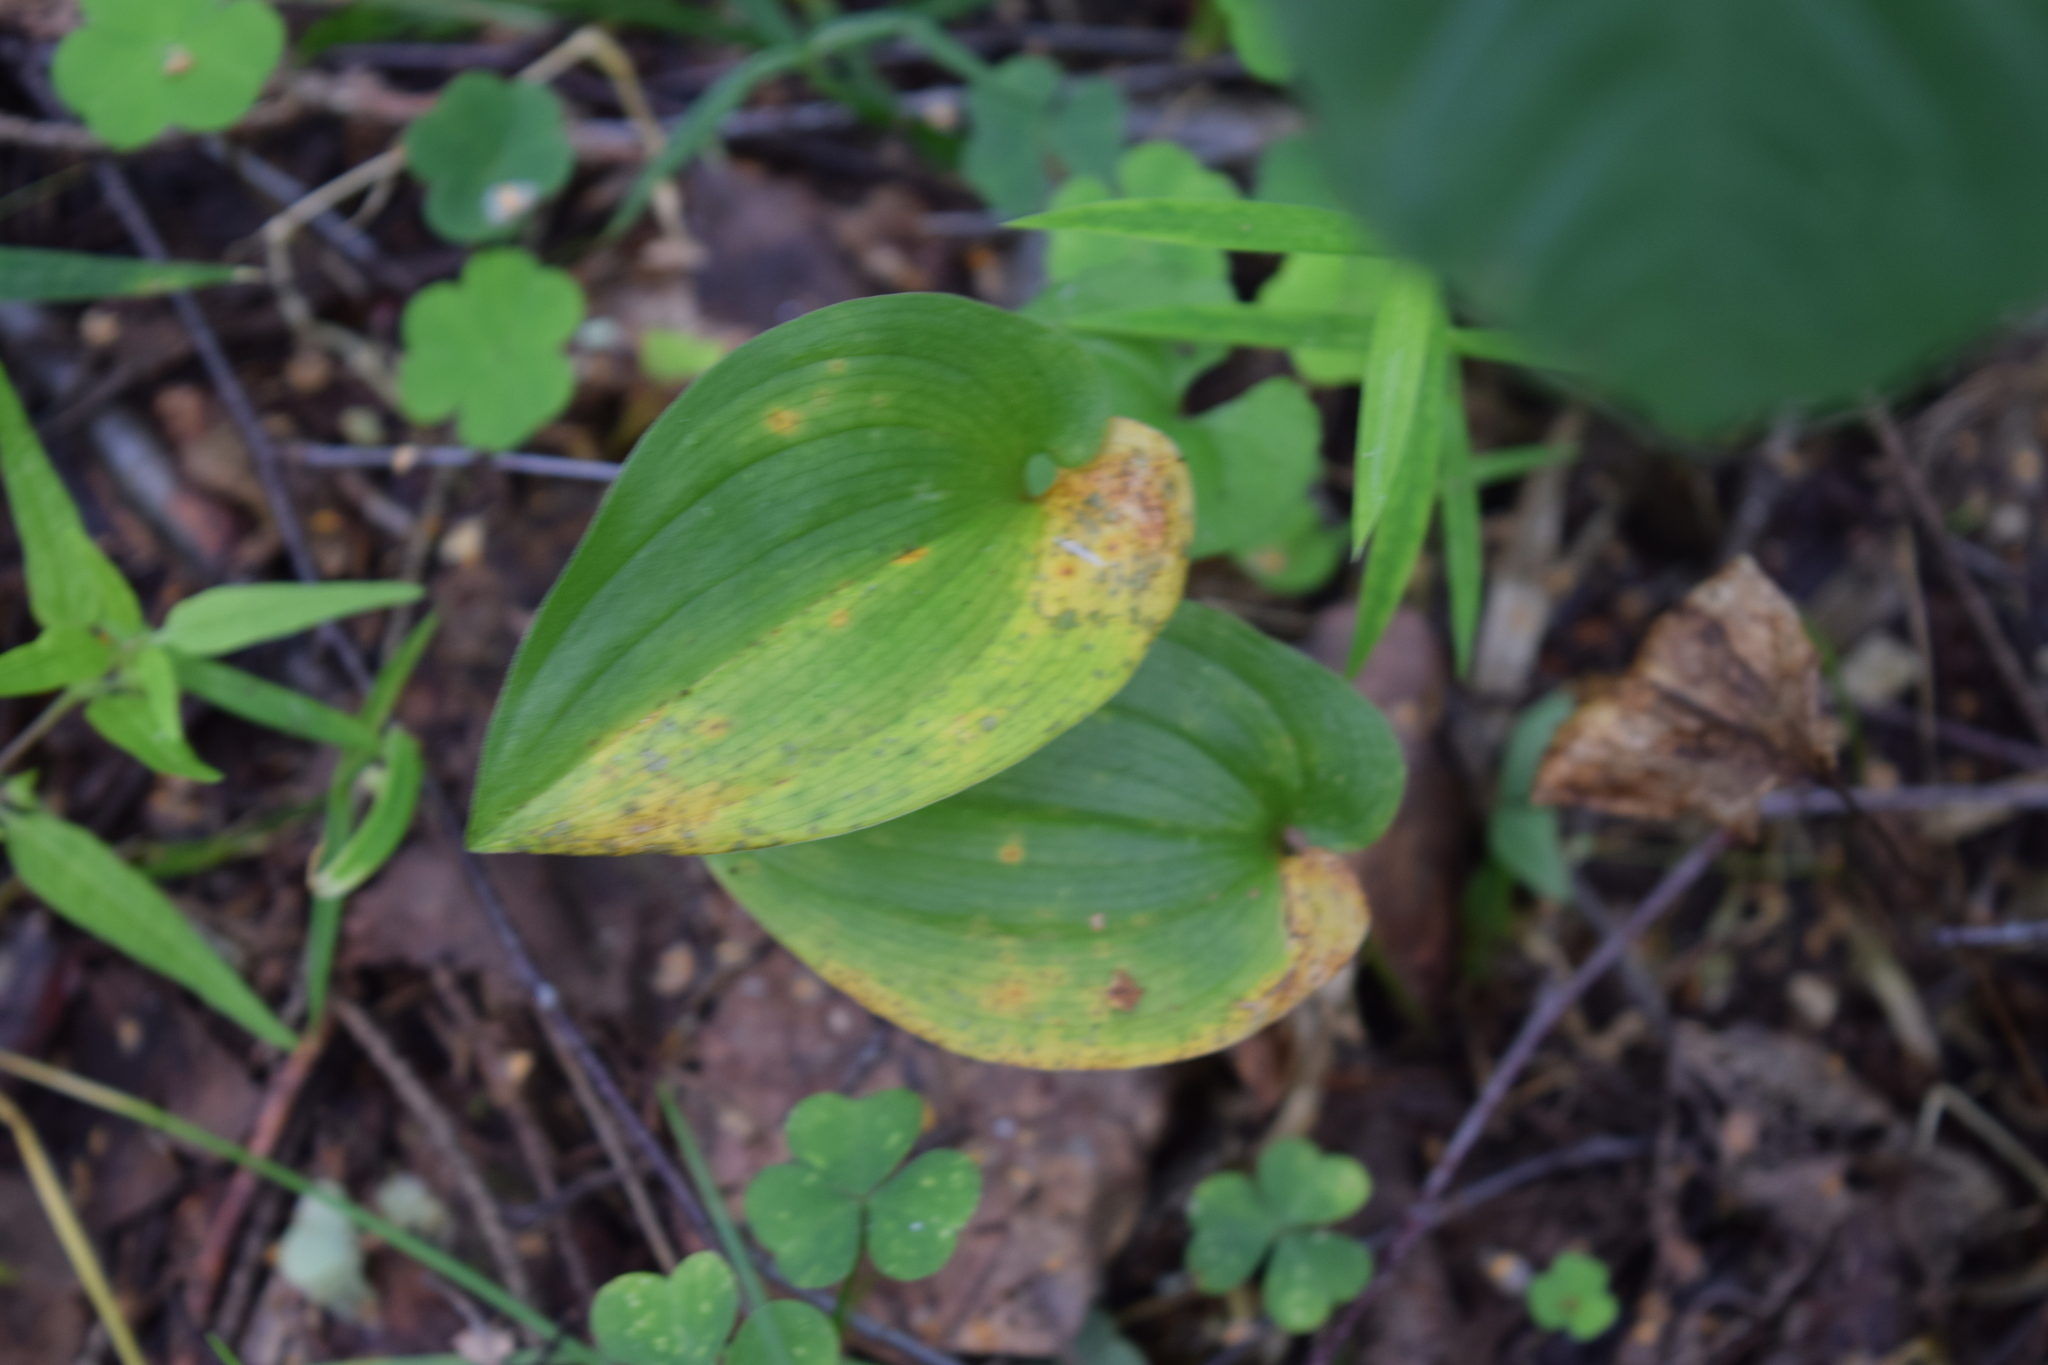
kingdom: Plantae
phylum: Tracheophyta
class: Liliopsida
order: Asparagales
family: Asparagaceae
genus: Maianthemum
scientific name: Maianthemum bifolium
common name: May lily
